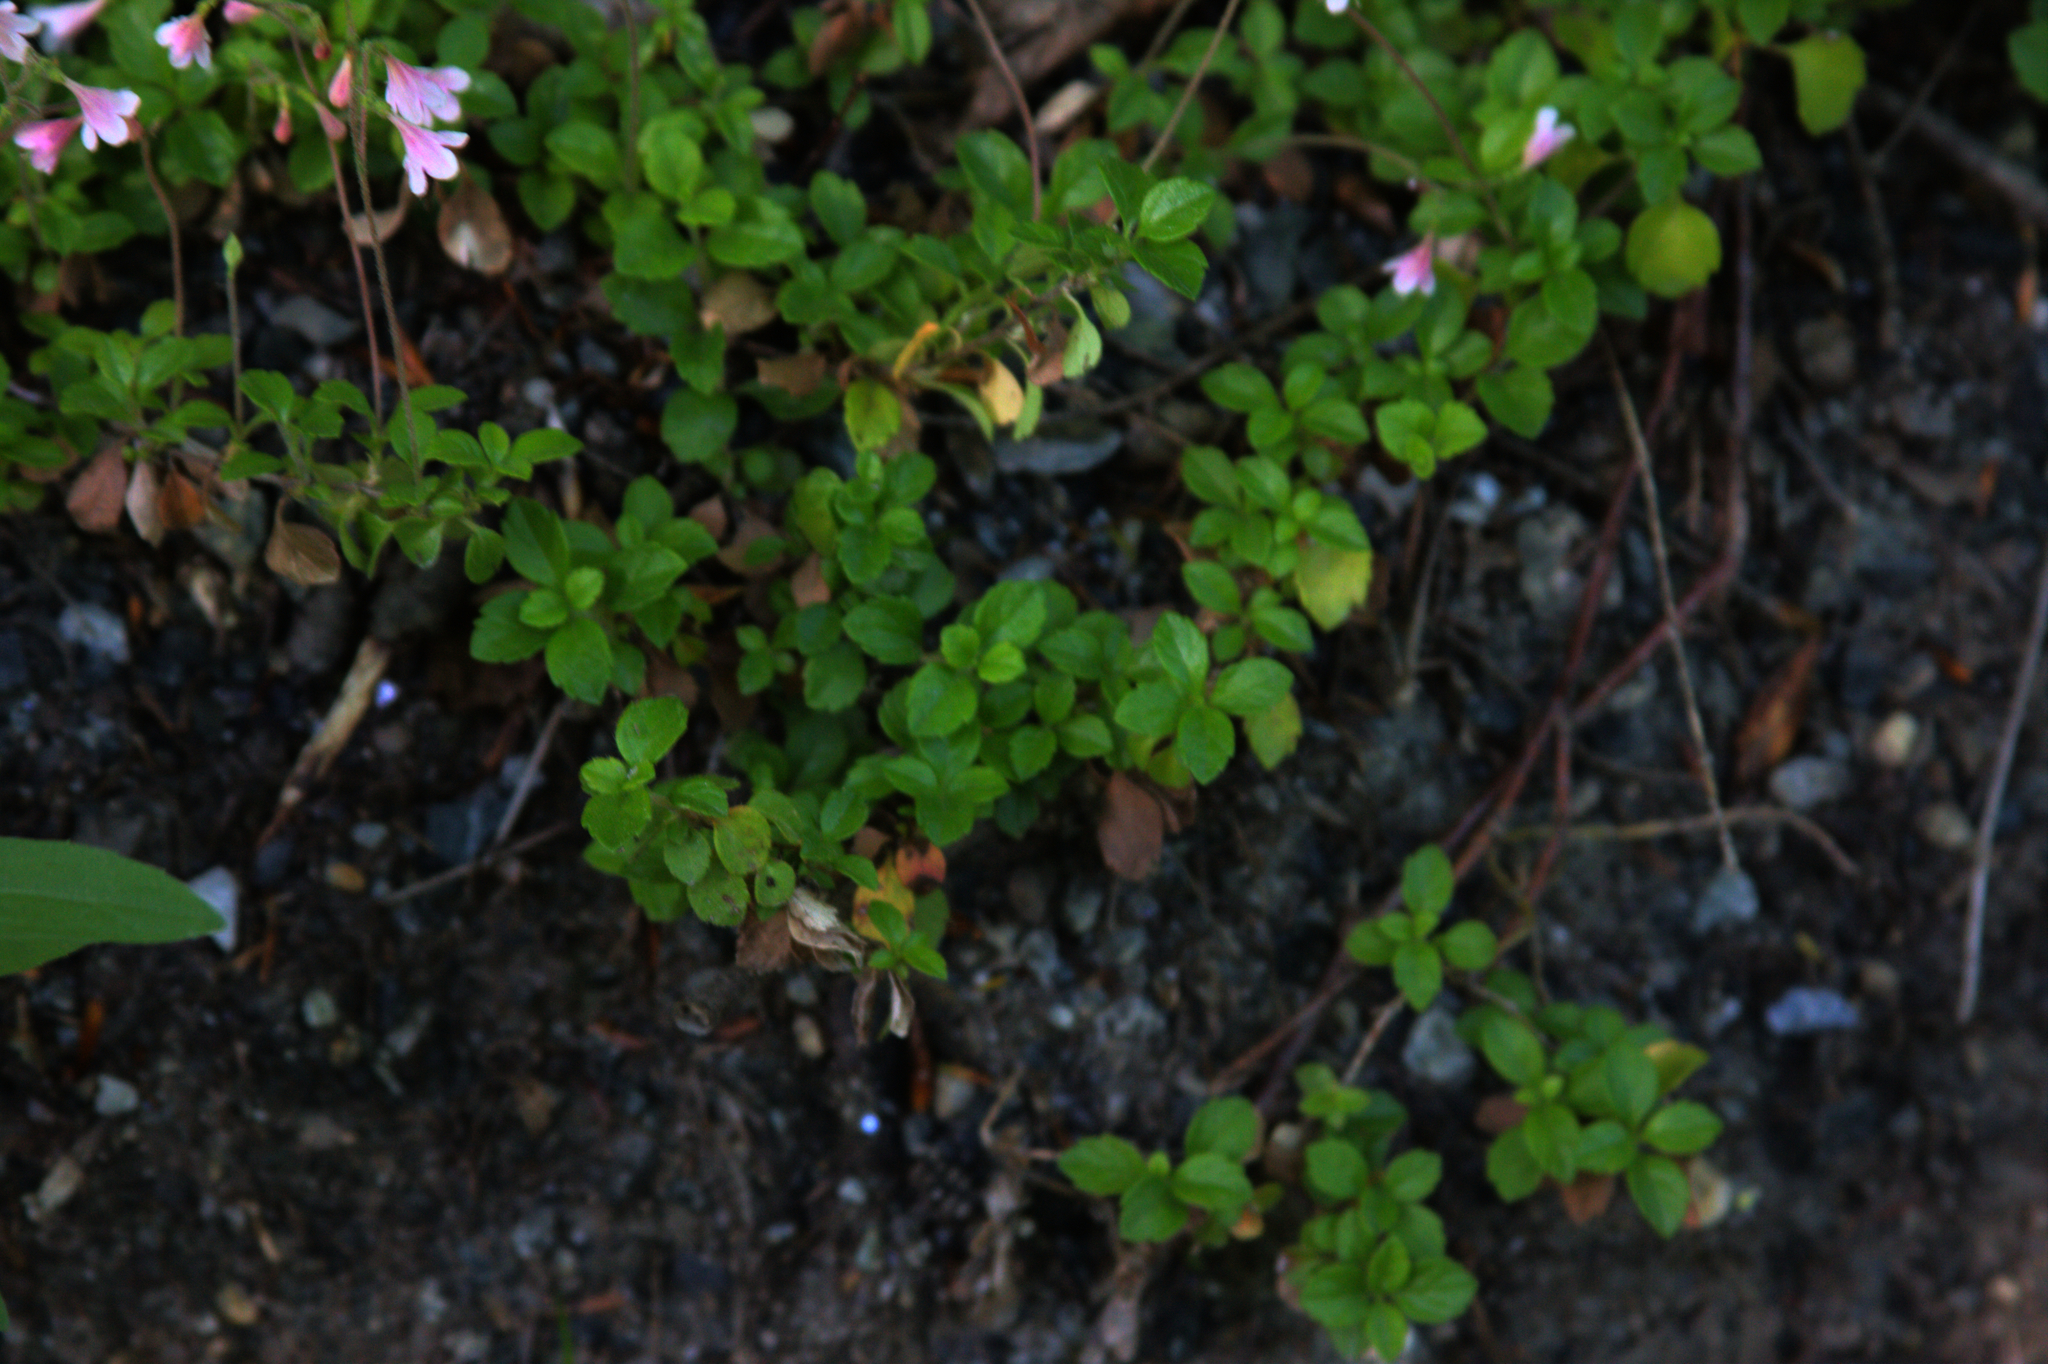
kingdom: Plantae
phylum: Tracheophyta
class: Magnoliopsida
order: Dipsacales
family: Caprifoliaceae
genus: Linnaea
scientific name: Linnaea borealis
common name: Twinflower
